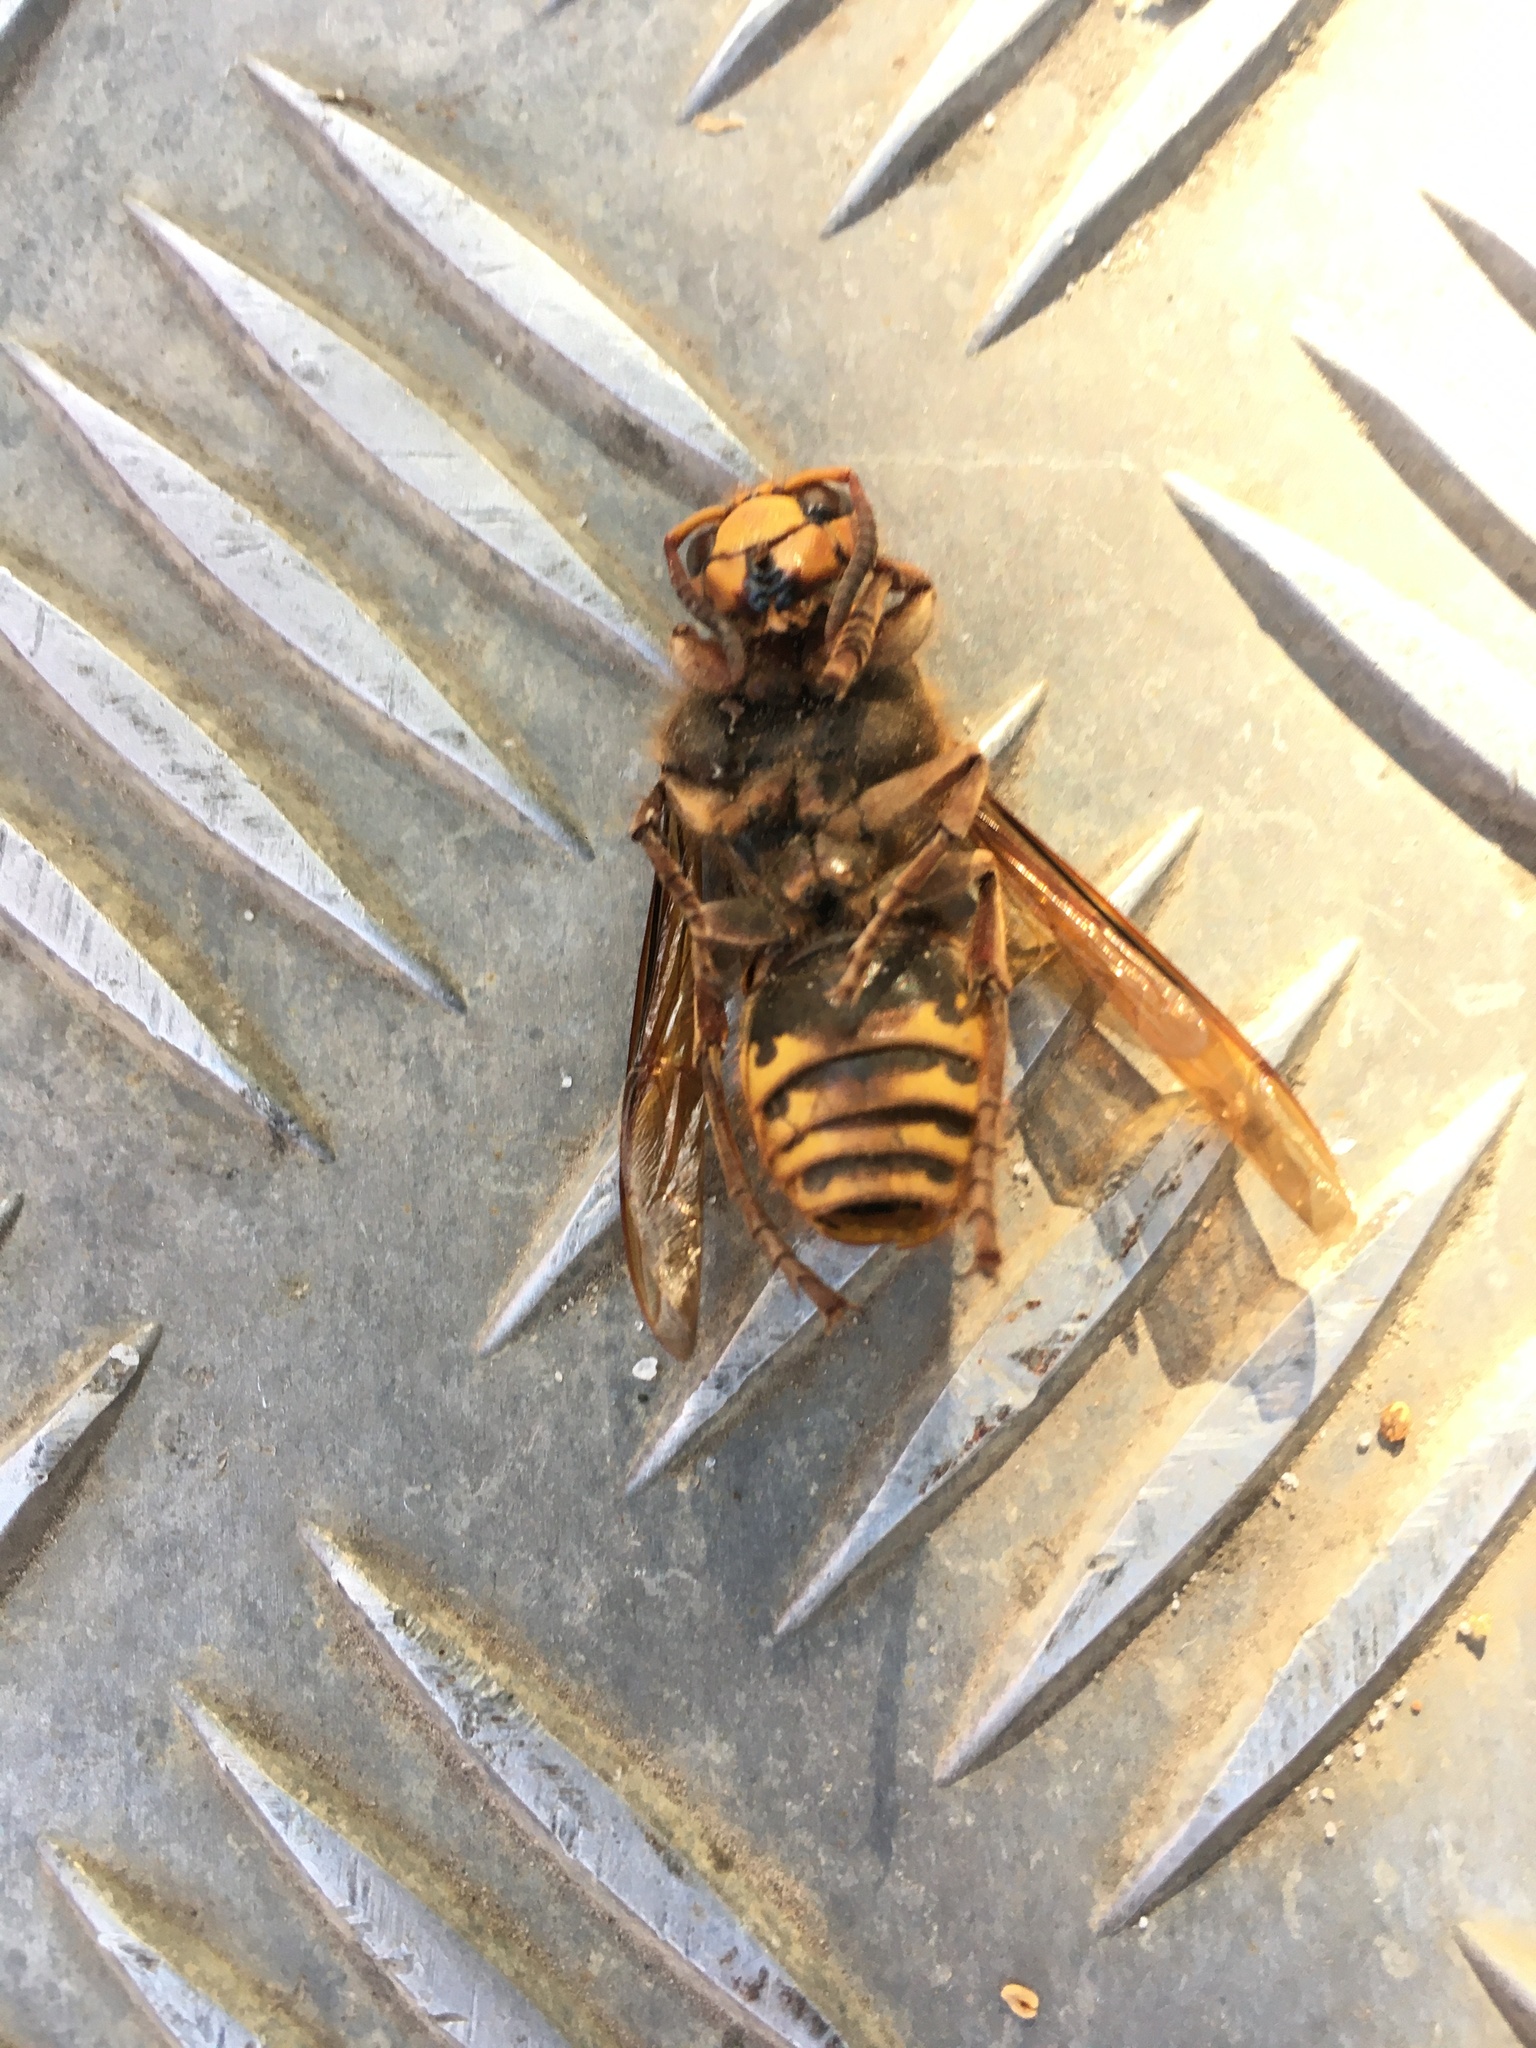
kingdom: Animalia
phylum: Arthropoda
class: Insecta
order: Hymenoptera
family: Vespidae
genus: Vespa
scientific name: Vespa crabro
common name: Hornet
